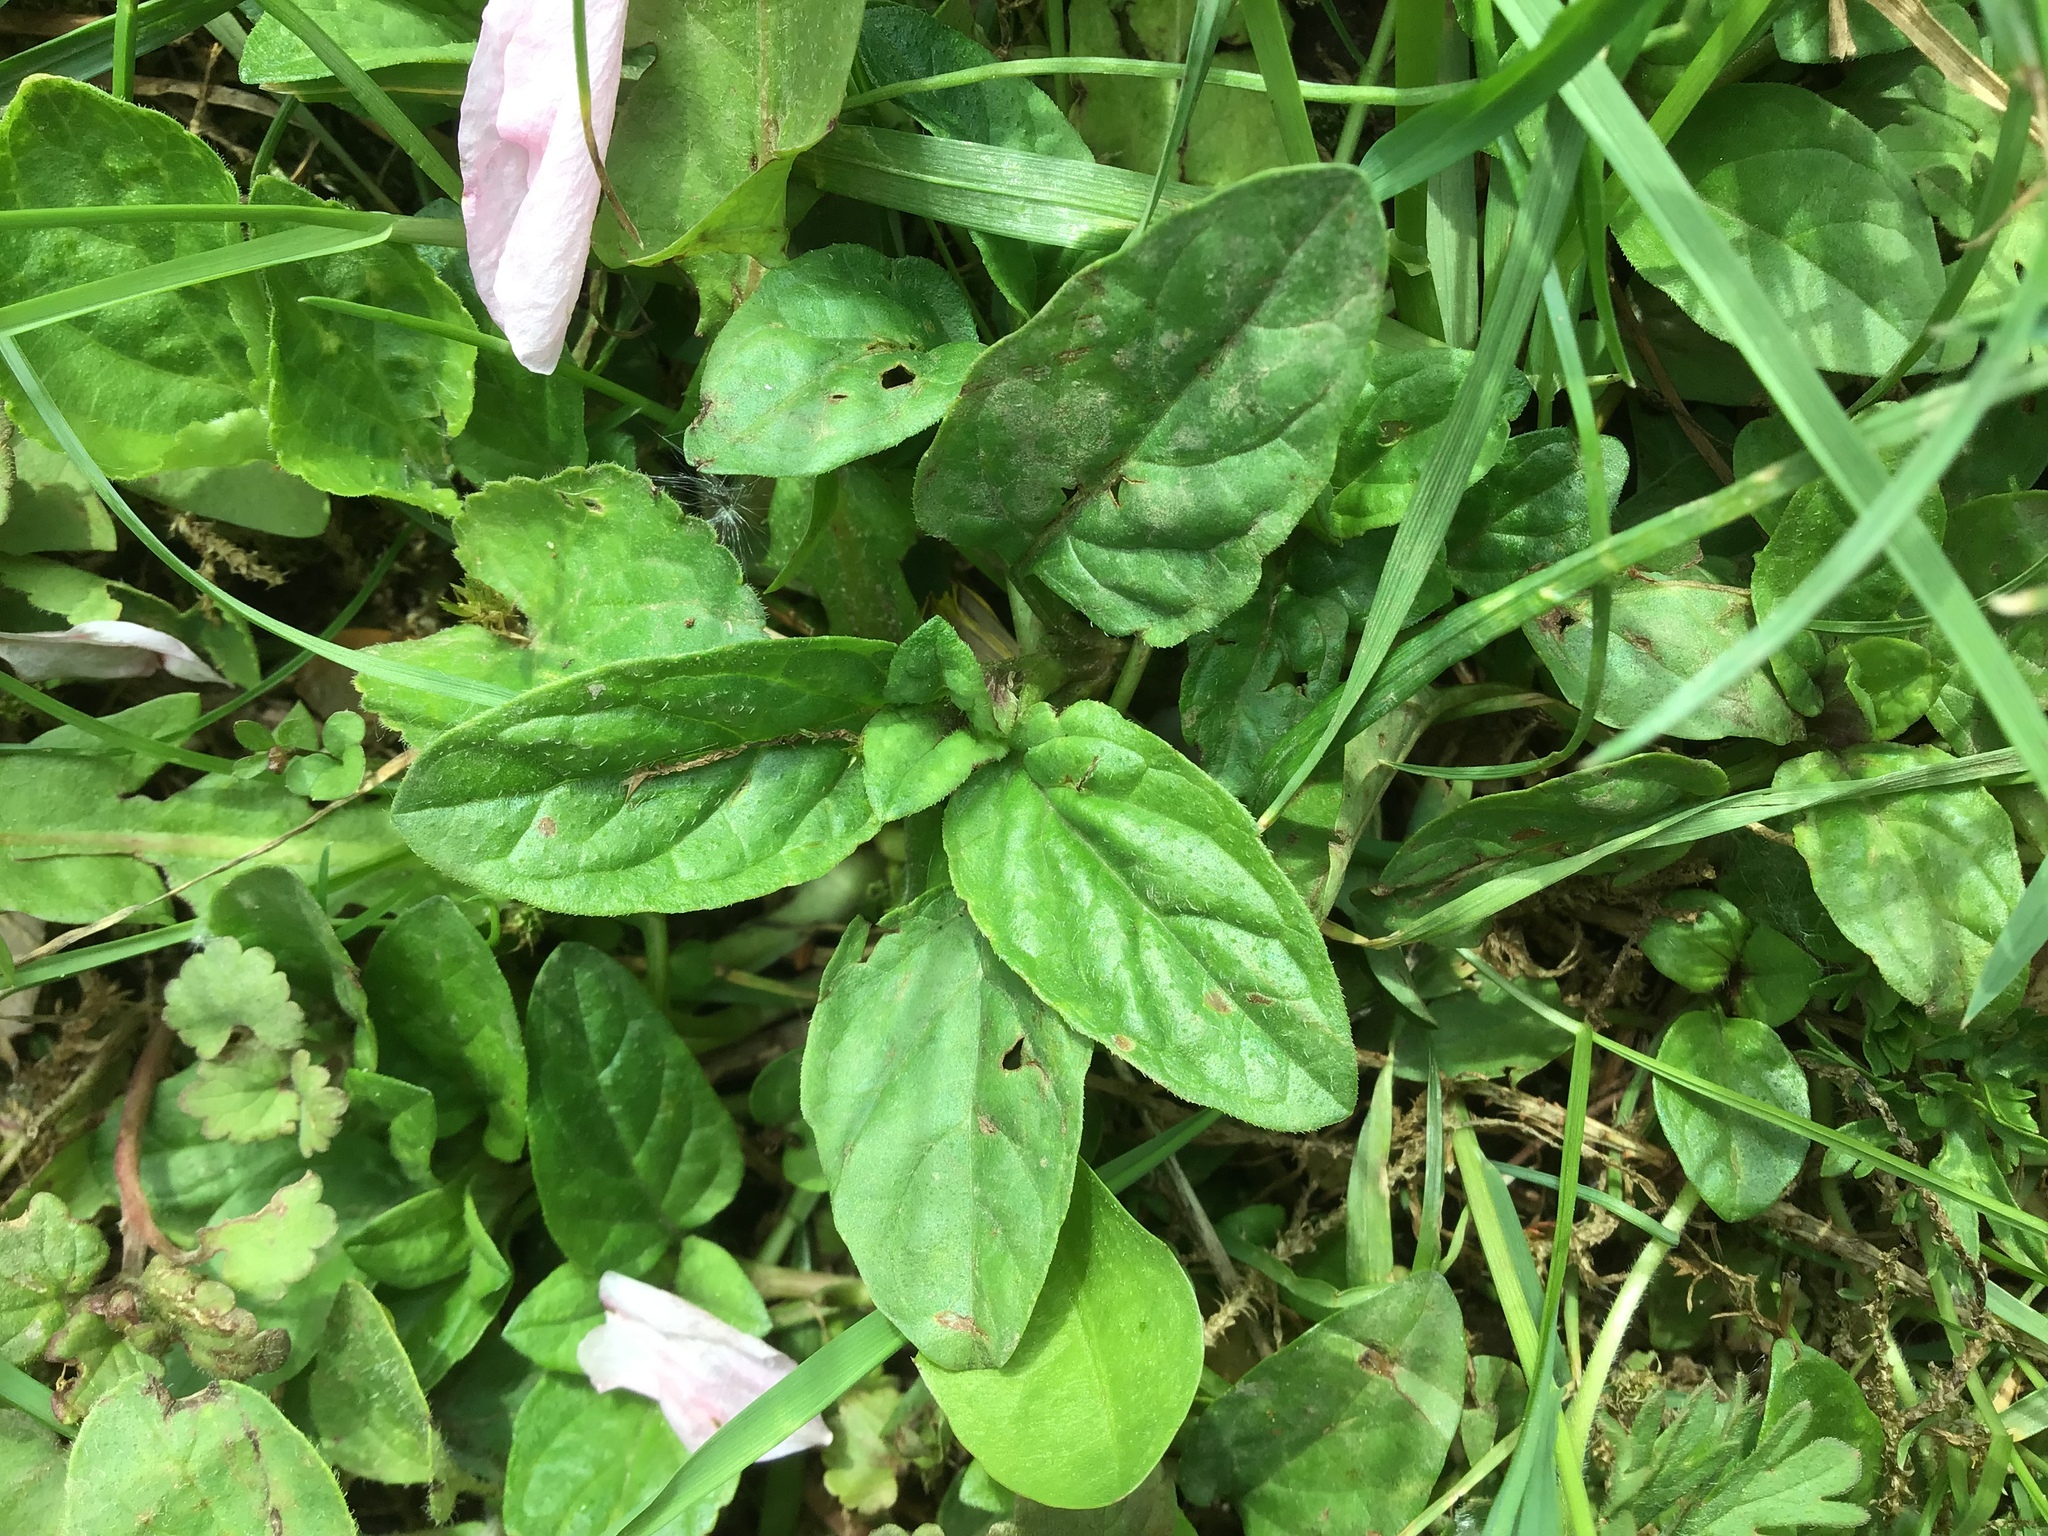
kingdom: Plantae
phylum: Tracheophyta
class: Magnoliopsida
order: Lamiales
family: Lamiaceae
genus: Prunella
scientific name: Prunella vulgaris
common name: Heal-all
